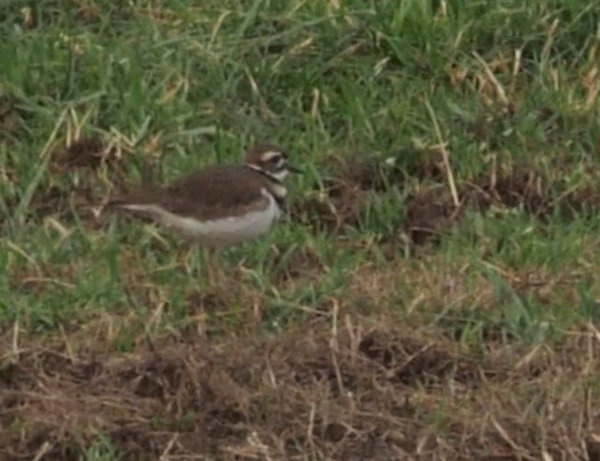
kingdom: Animalia
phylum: Chordata
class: Aves
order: Charadriiformes
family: Charadriidae
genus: Charadrius
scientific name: Charadrius vociferus
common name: Killdeer
